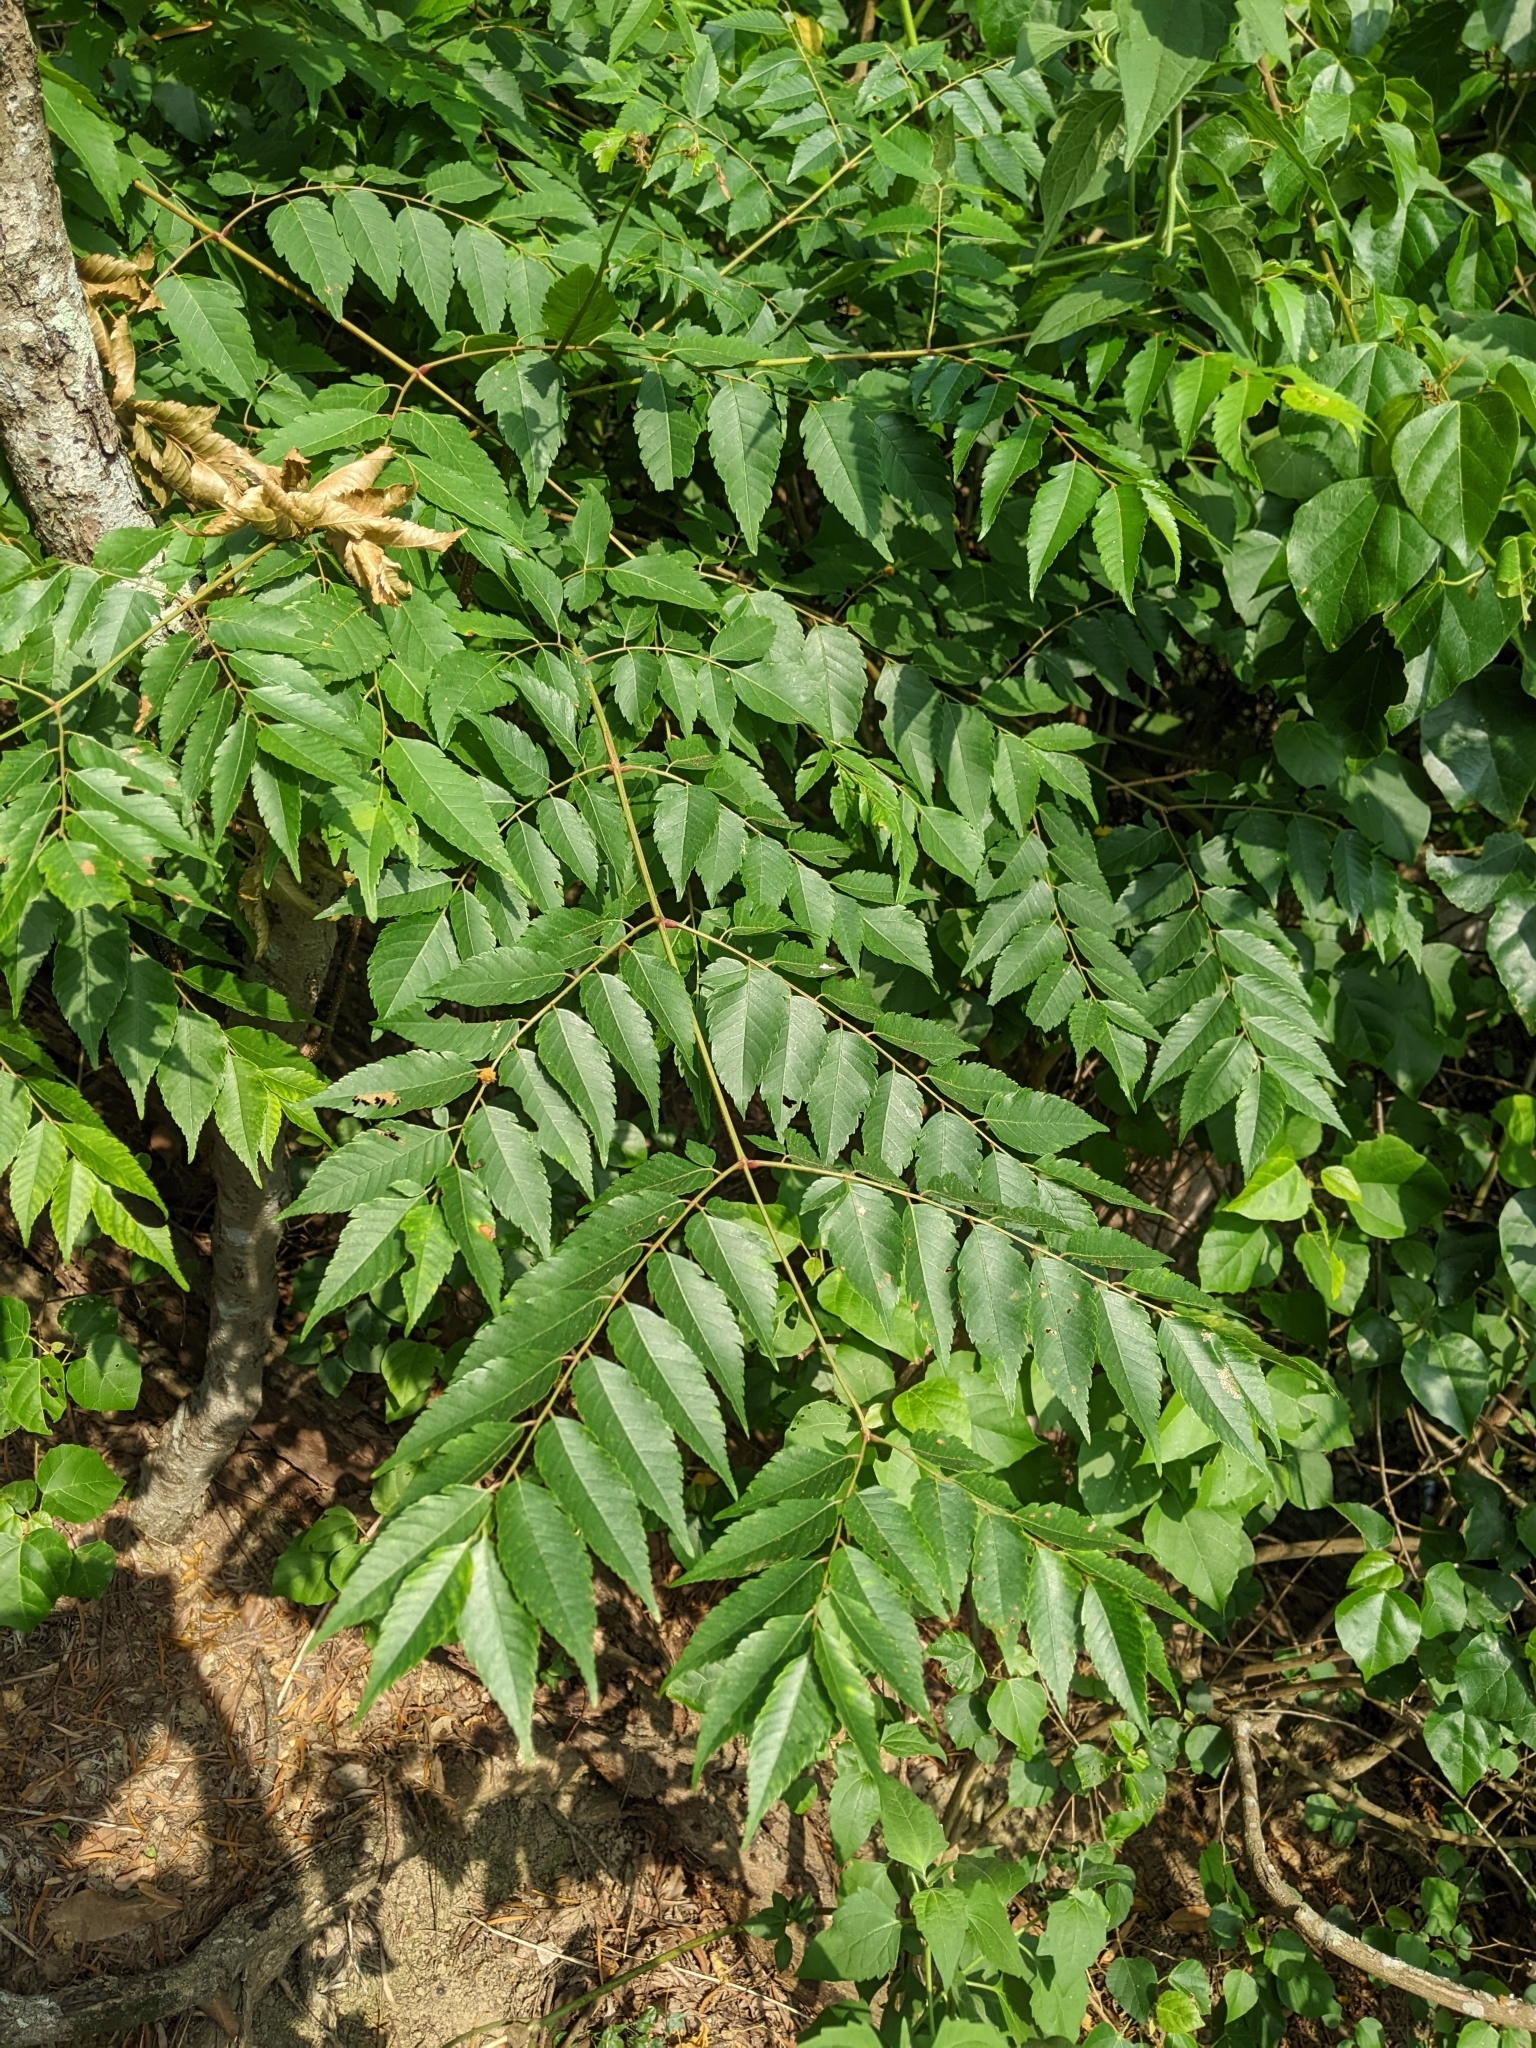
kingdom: Plantae
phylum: Tracheophyta
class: Magnoliopsida
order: Sapindales
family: Sapindaceae
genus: Koelreuteria
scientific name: Koelreuteria elegans
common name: Chinese flame tree
